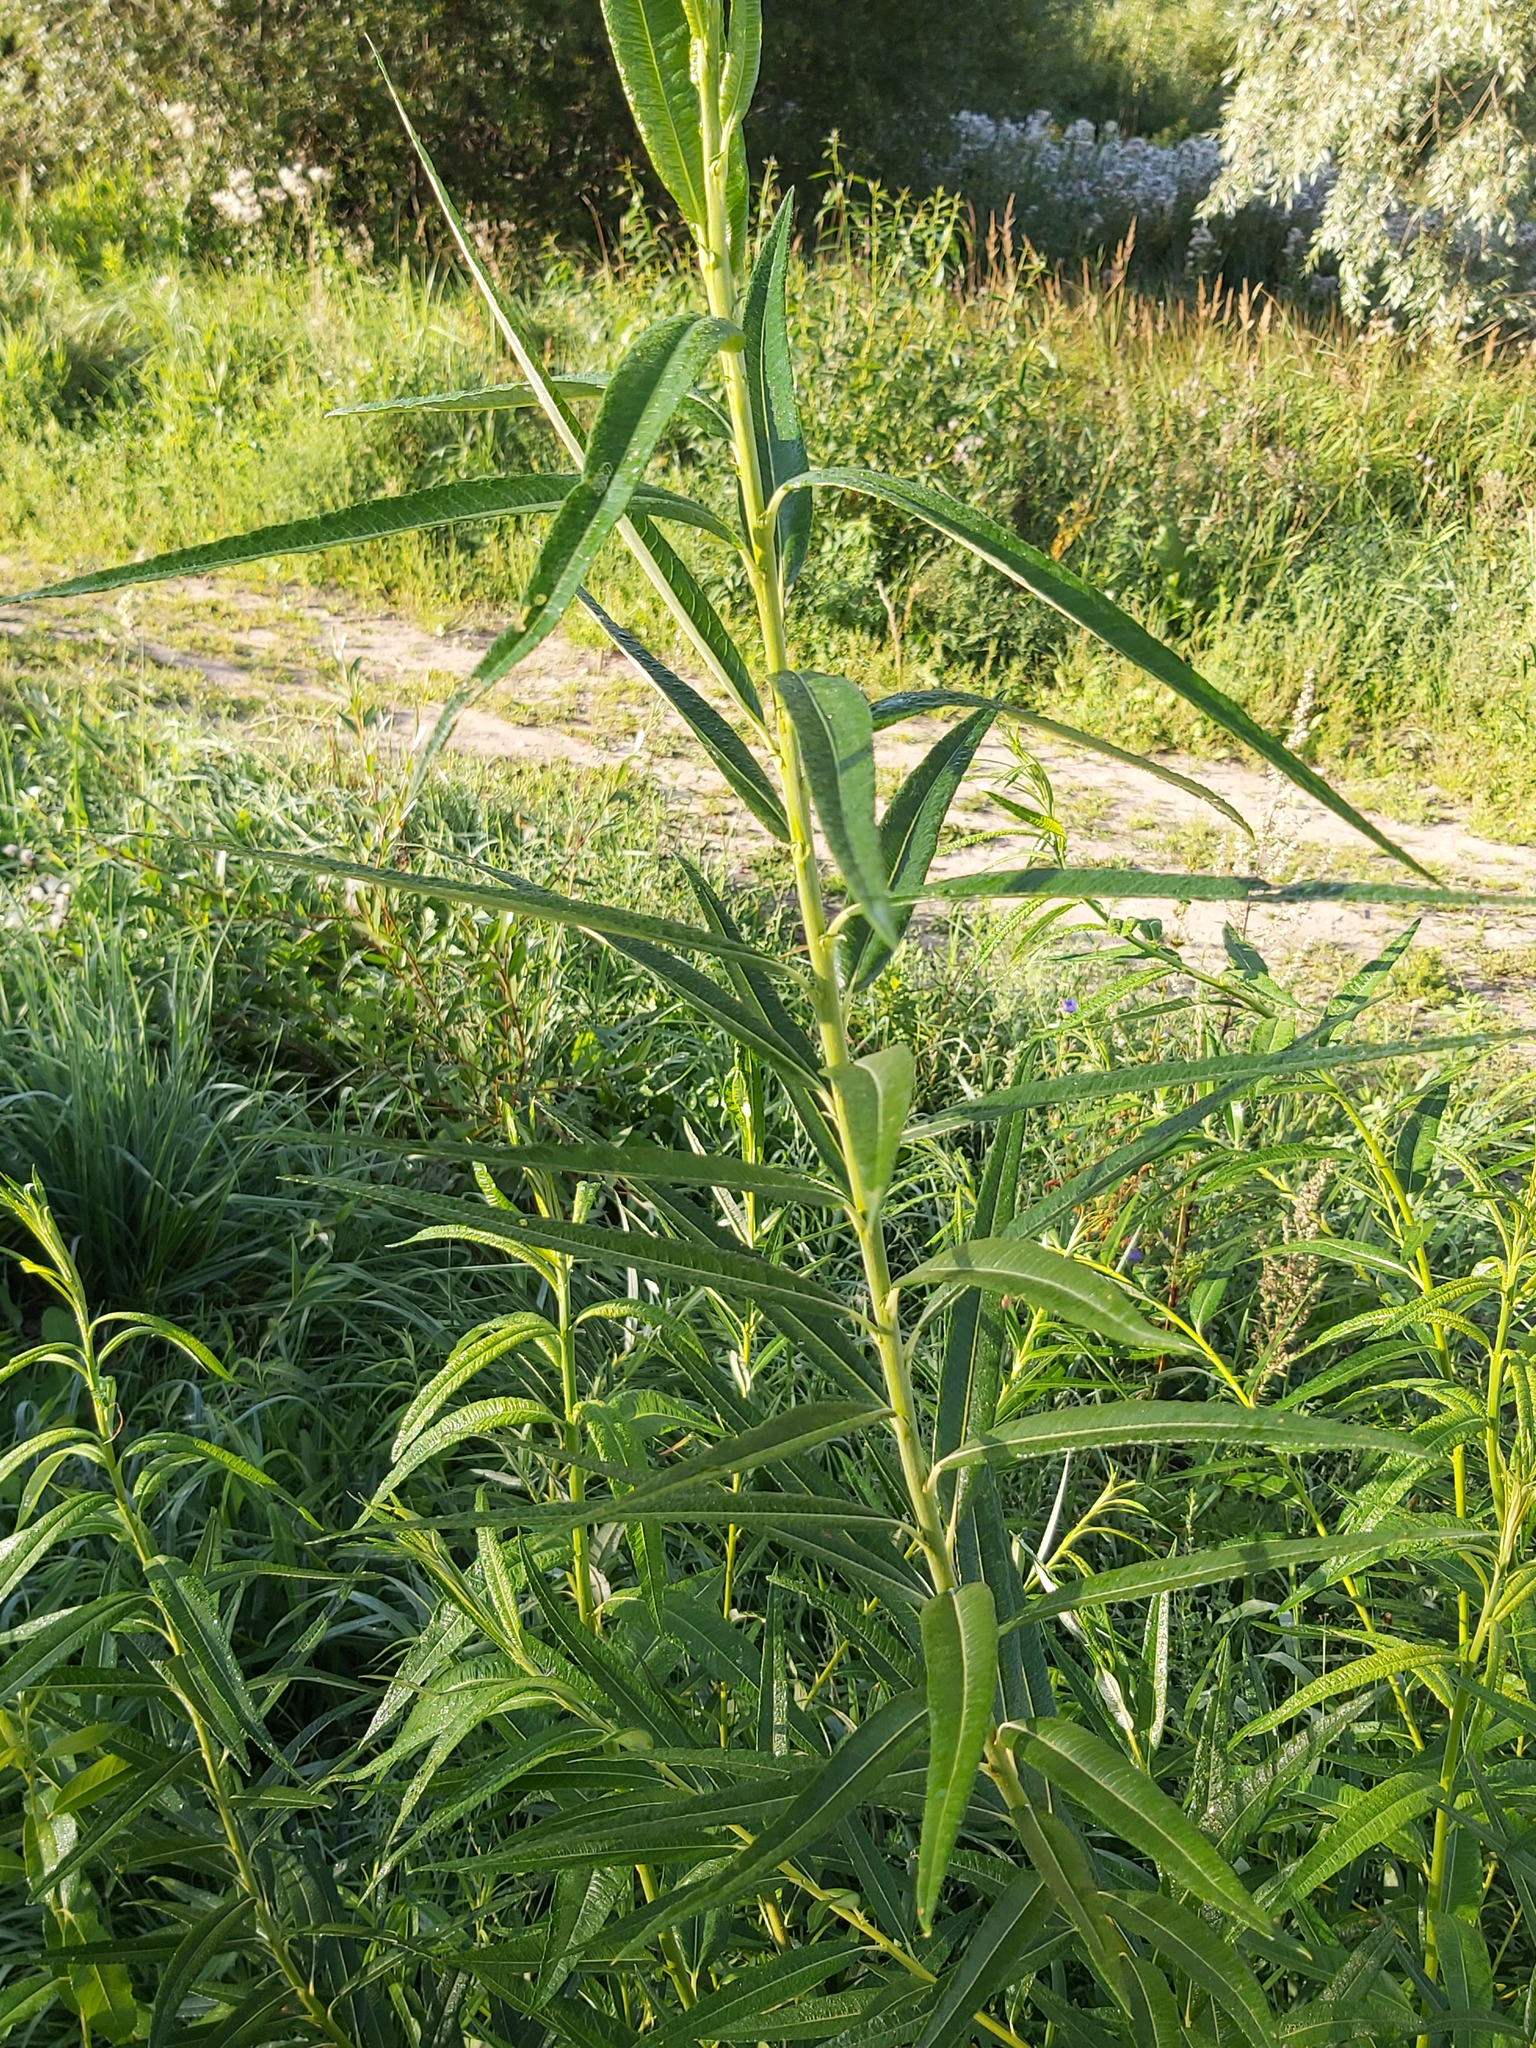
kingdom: Plantae
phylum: Tracheophyta
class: Magnoliopsida
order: Malpighiales
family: Salicaceae
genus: Salix
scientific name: Salix viminalis
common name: Osier
